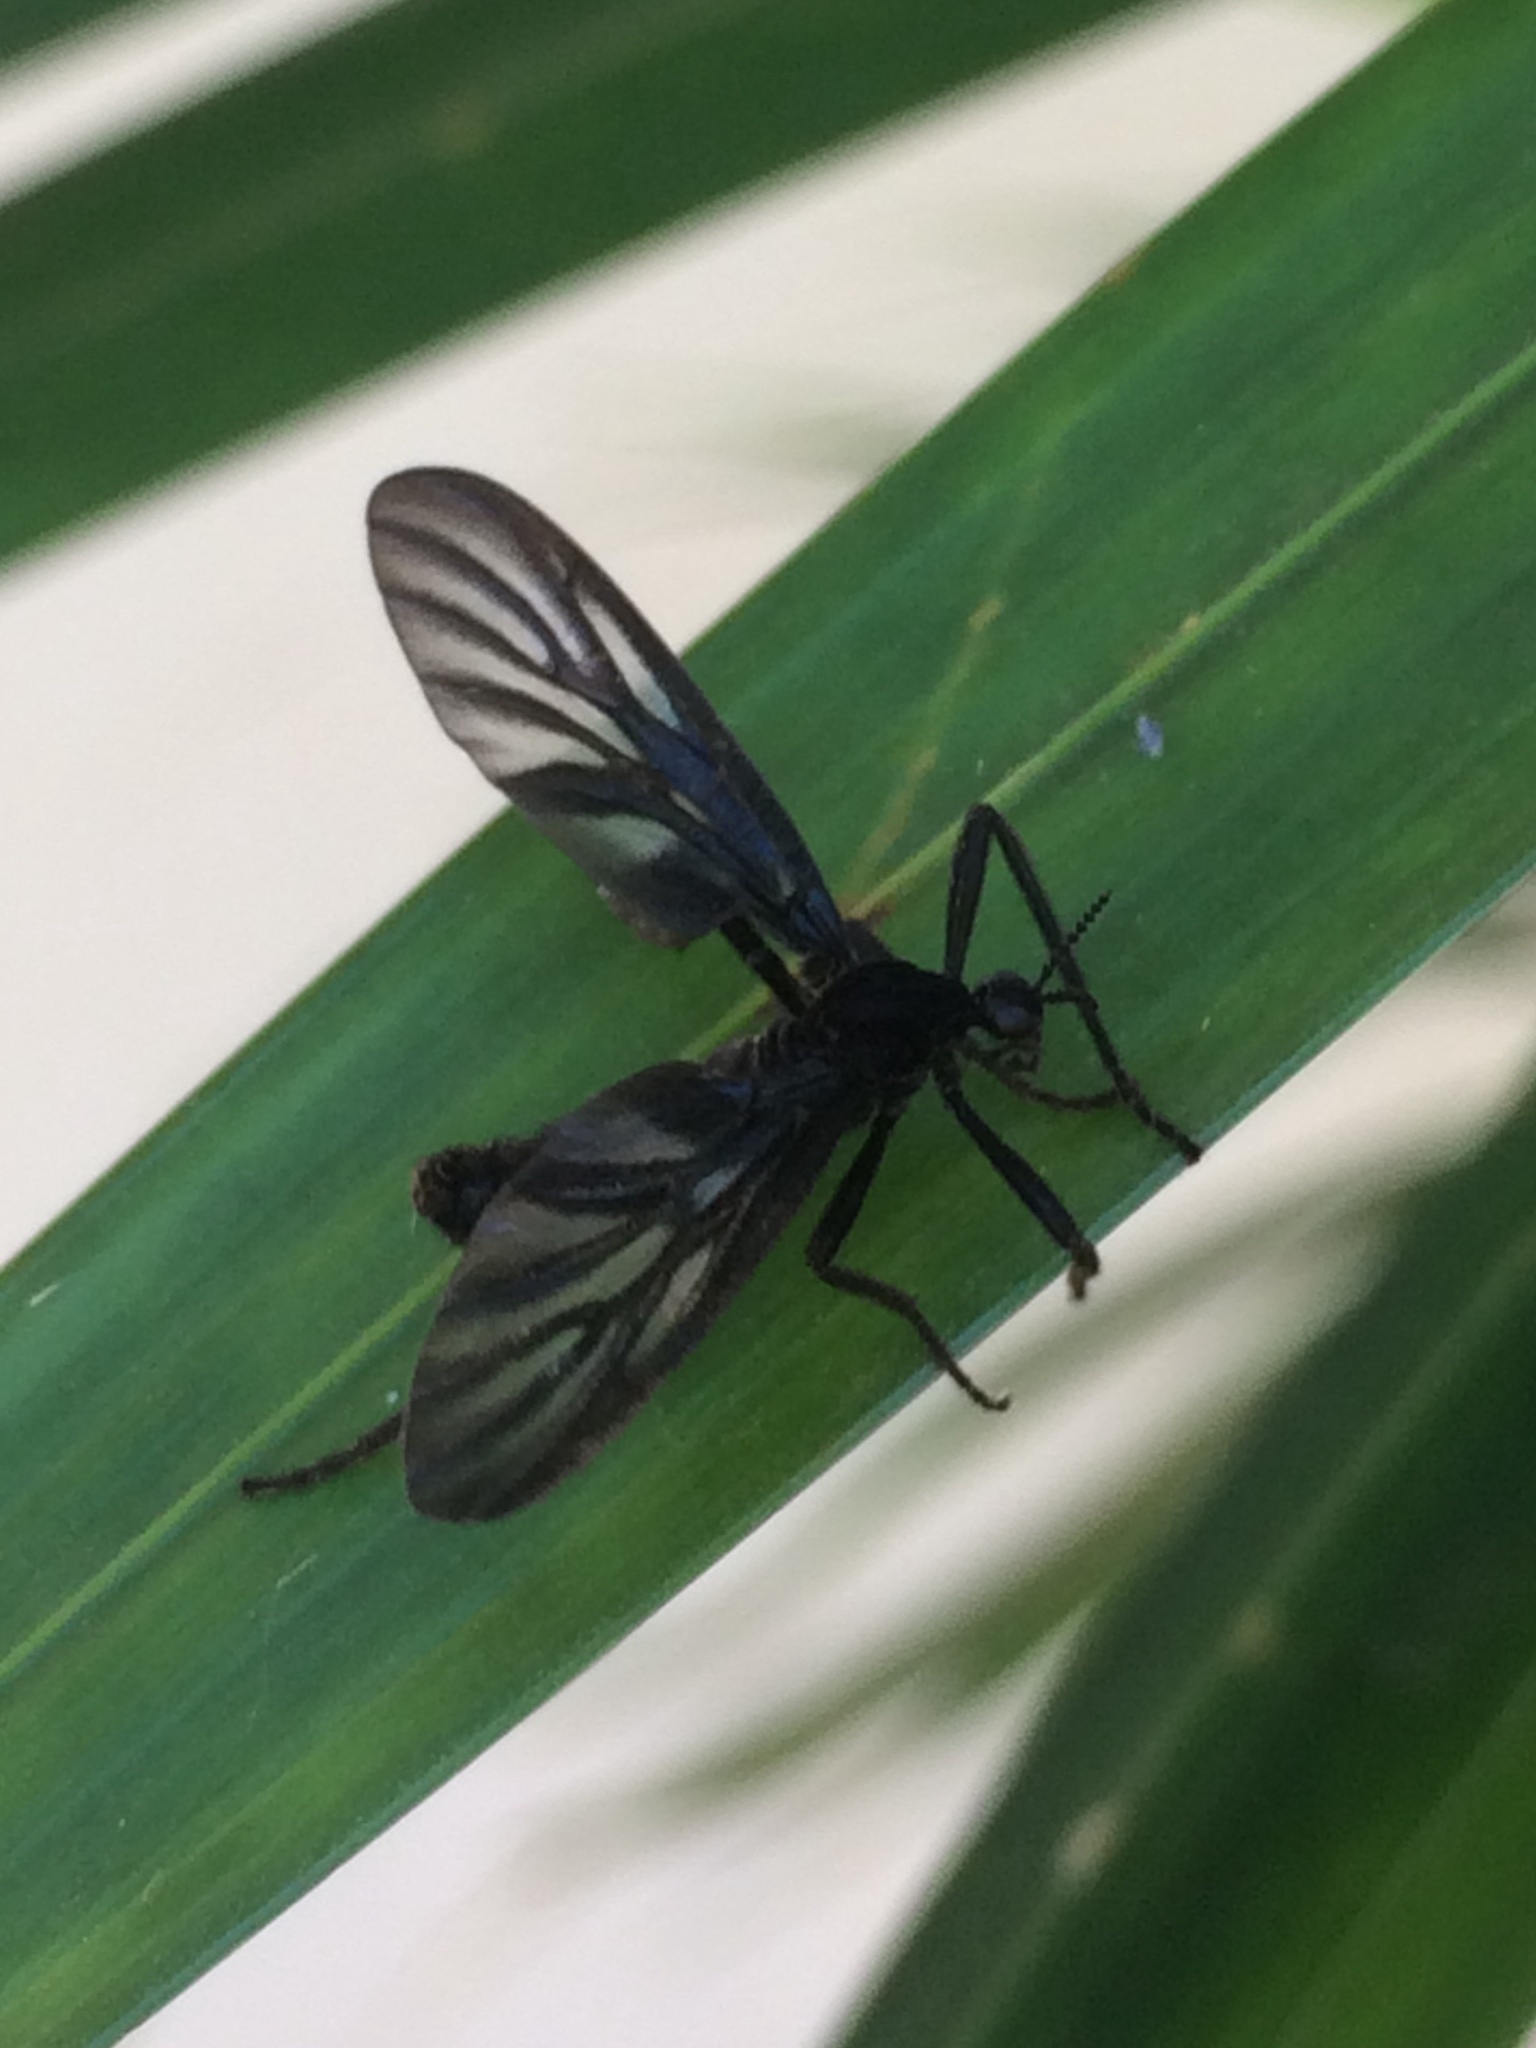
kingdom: Animalia
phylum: Arthropoda
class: Insecta
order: Diptera
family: Bibionidae
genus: Plecia
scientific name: Plecia plagiata
